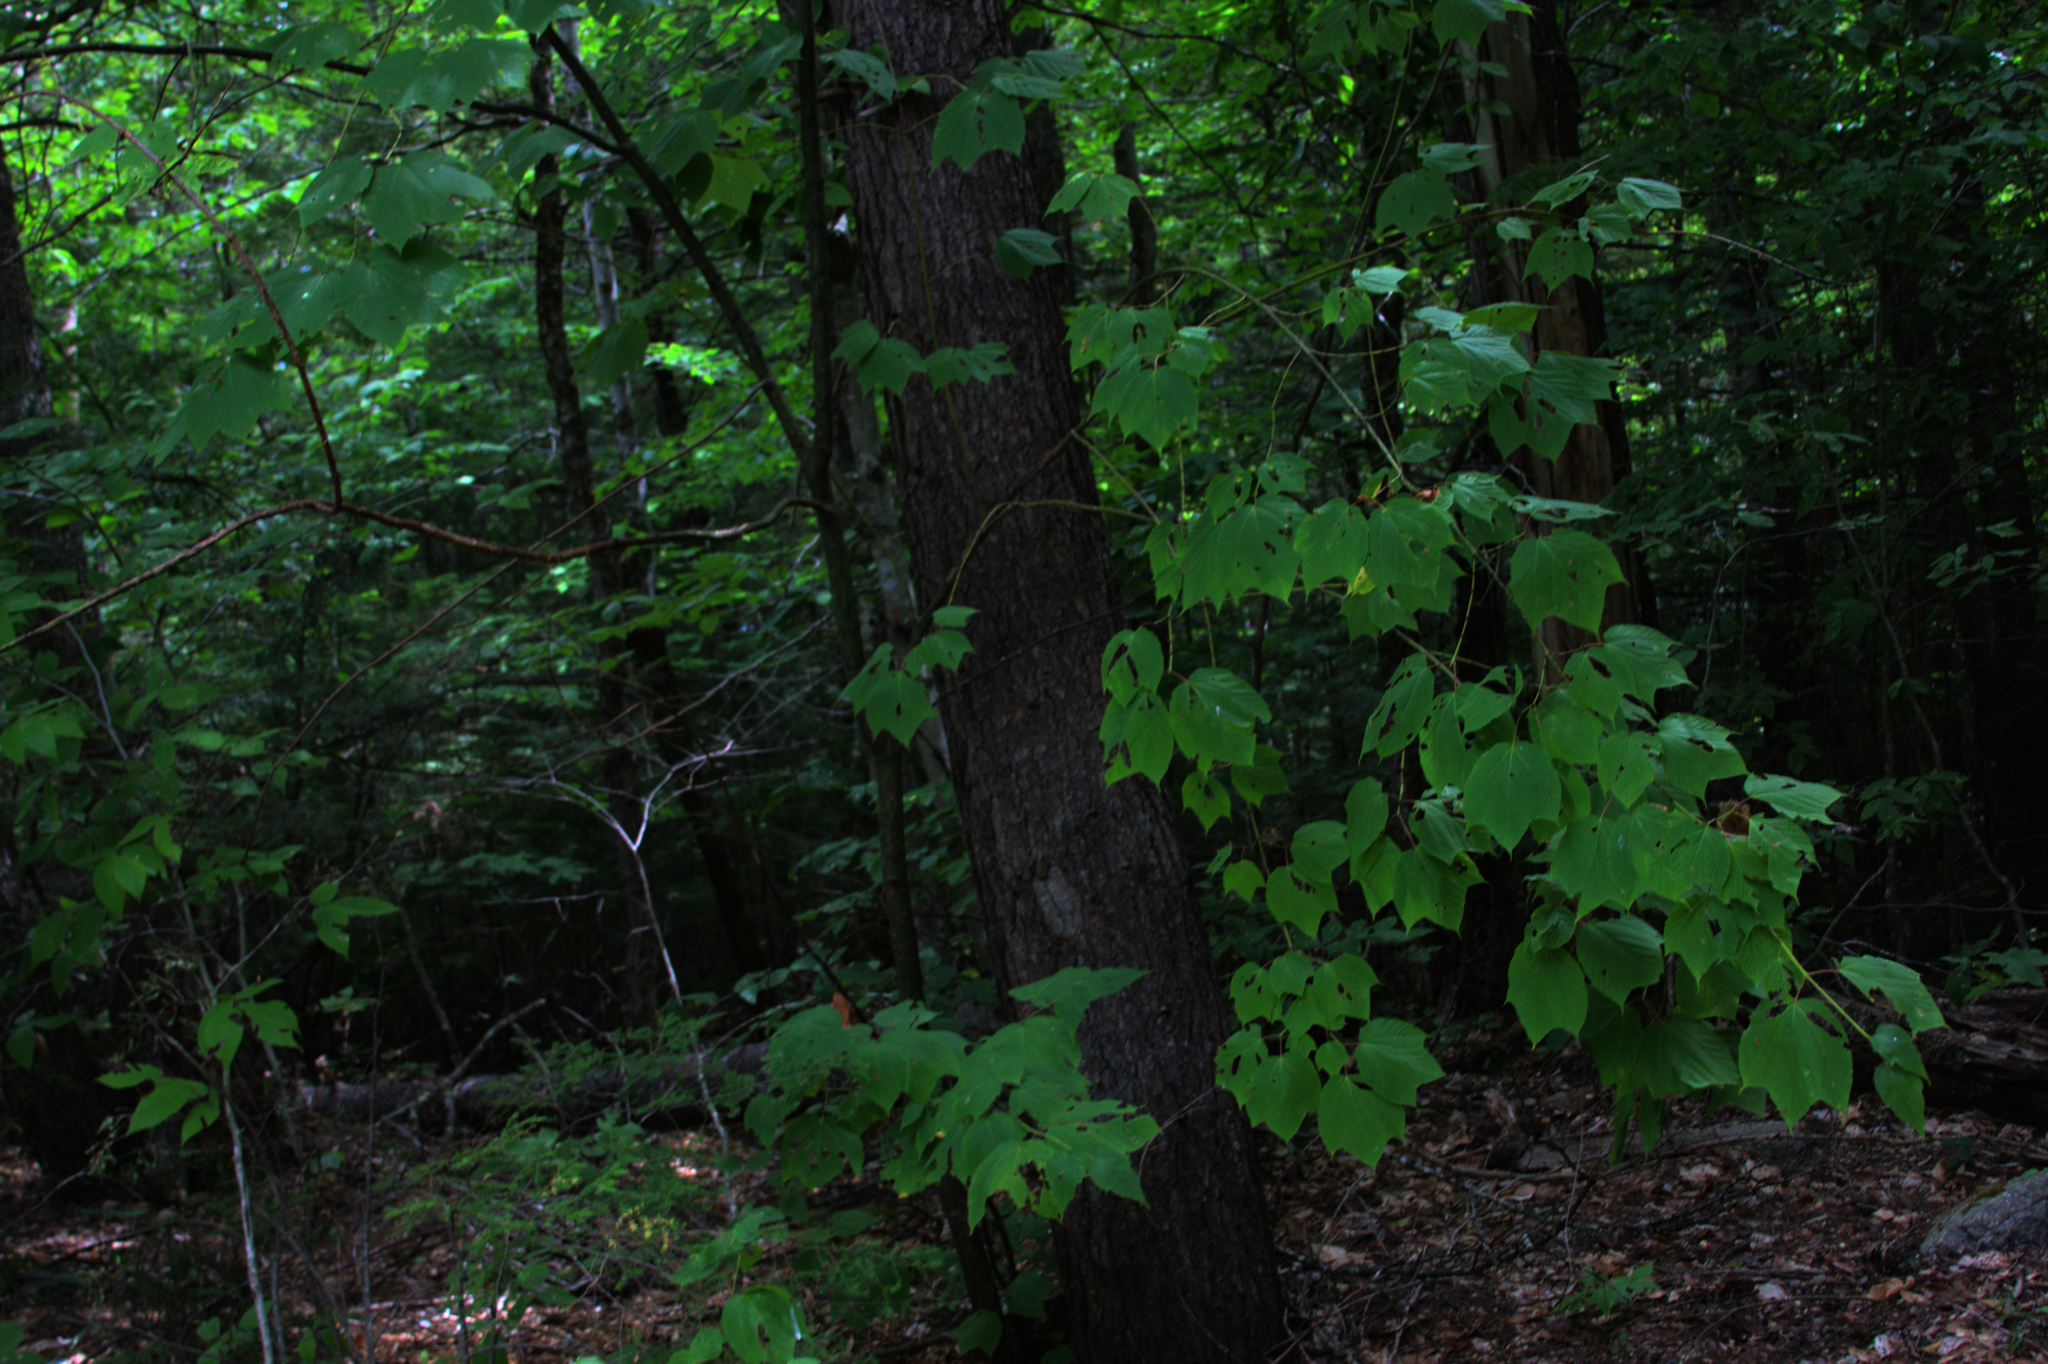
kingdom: Plantae
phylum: Tracheophyta
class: Magnoliopsida
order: Sapindales
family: Sapindaceae
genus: Acer
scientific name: Acer pensylvanicum
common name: Moosewood
